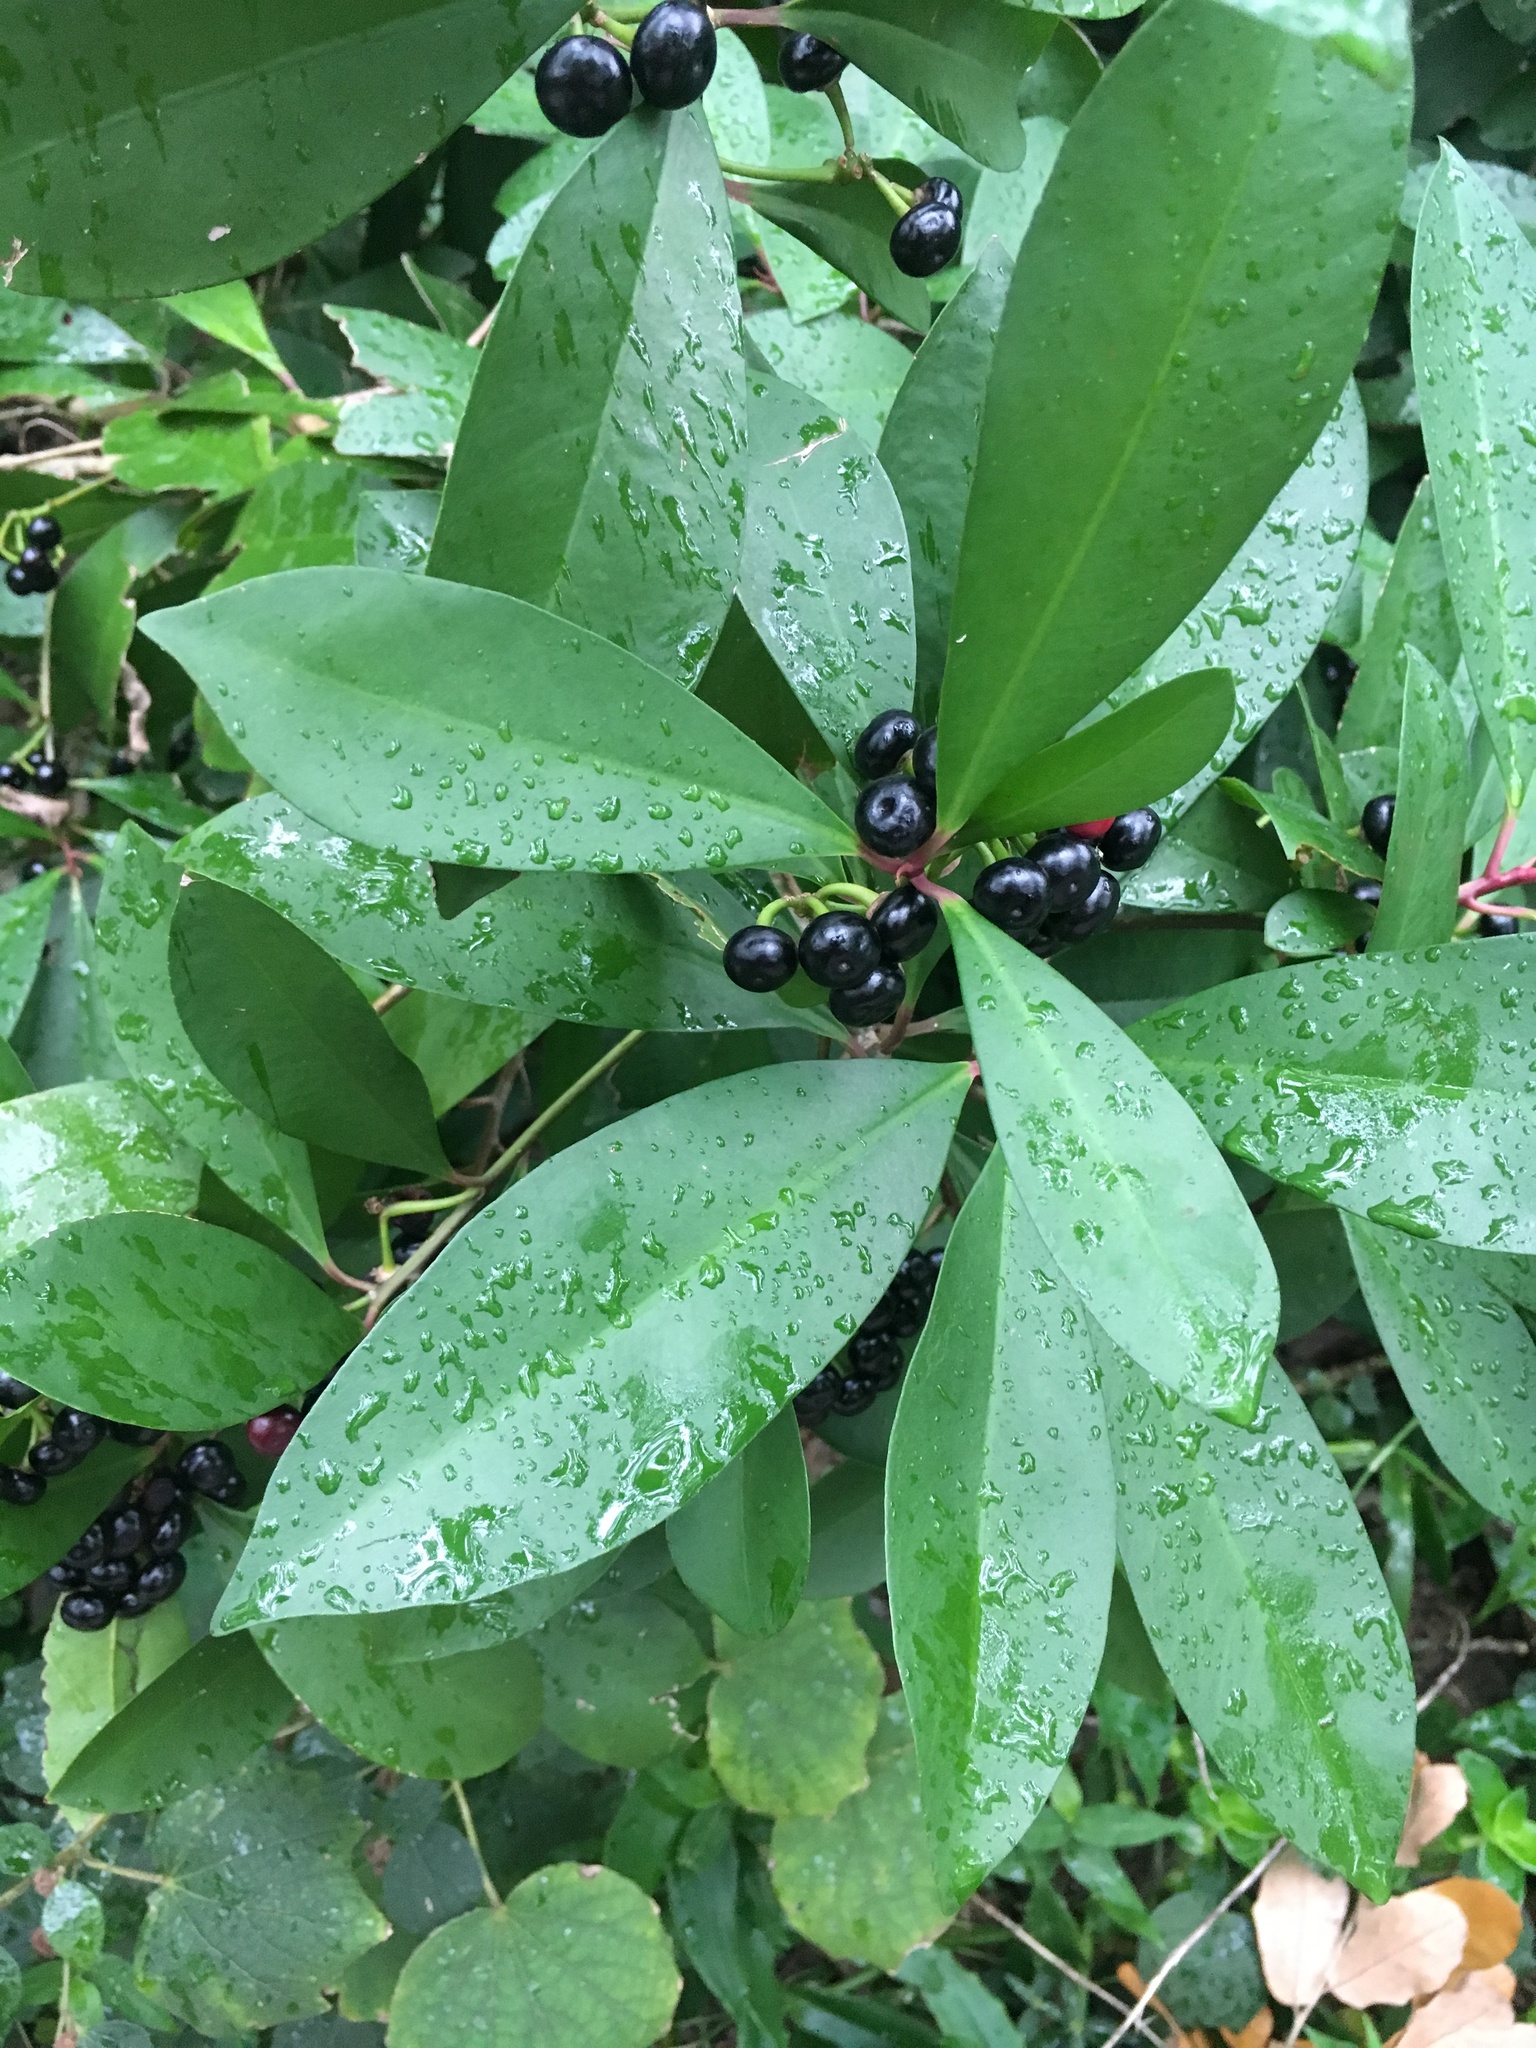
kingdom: Plantae
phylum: Tracheophyta
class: Magnoliopsida
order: Ericales
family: Primulaceae
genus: Ardisia
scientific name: Ardisia elliptica
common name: Shoebutton
